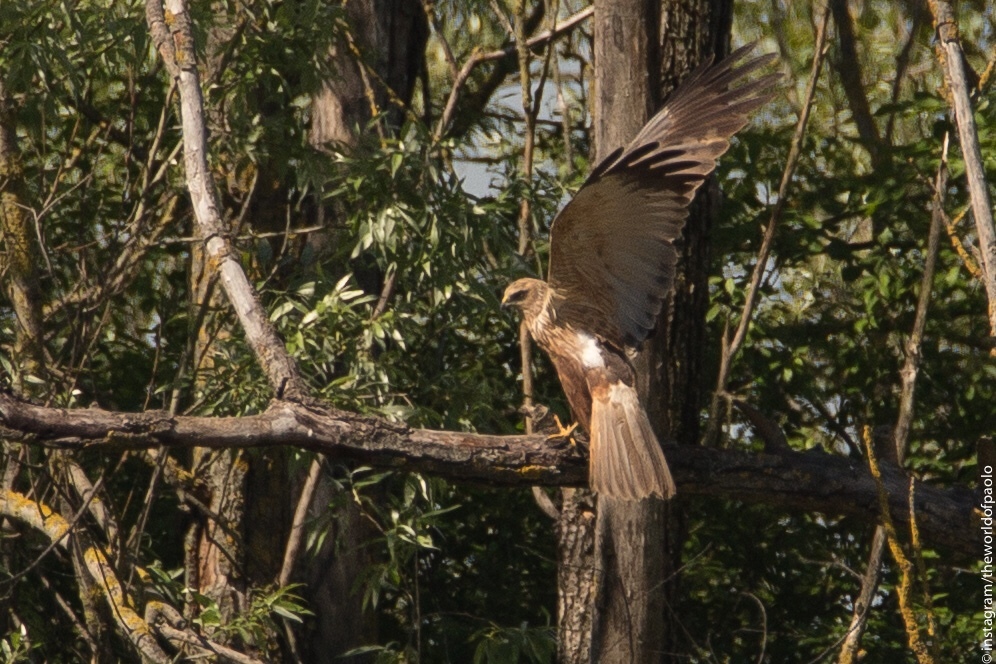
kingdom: Animalia
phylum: Chordata
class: Aves
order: Accipitriformes
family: Accipitridae
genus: Circus
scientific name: Circus aeruginosus
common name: Western marsh harrier
